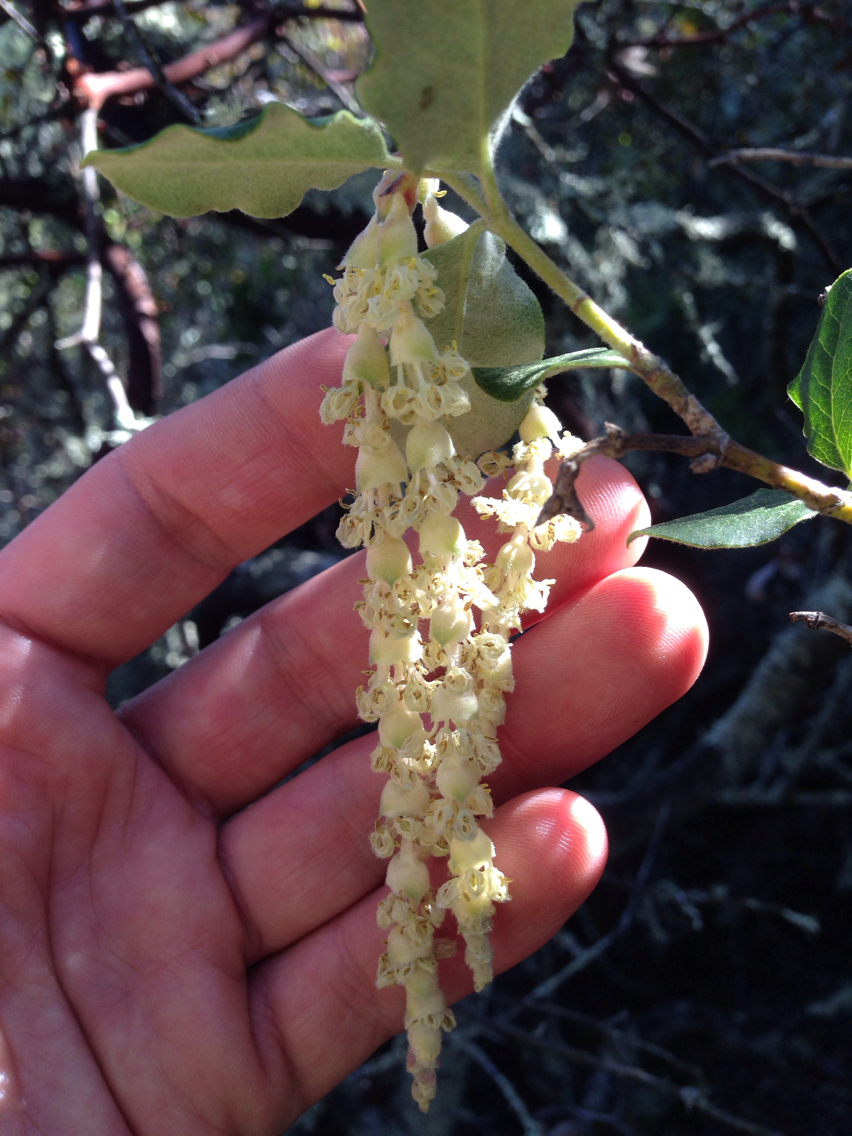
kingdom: Plantae
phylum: Tracheophyta
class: Magnoliopsida
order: Garryales
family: Garryaceae
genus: Garrya
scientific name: Garrya elliptica
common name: Silk-tassel
